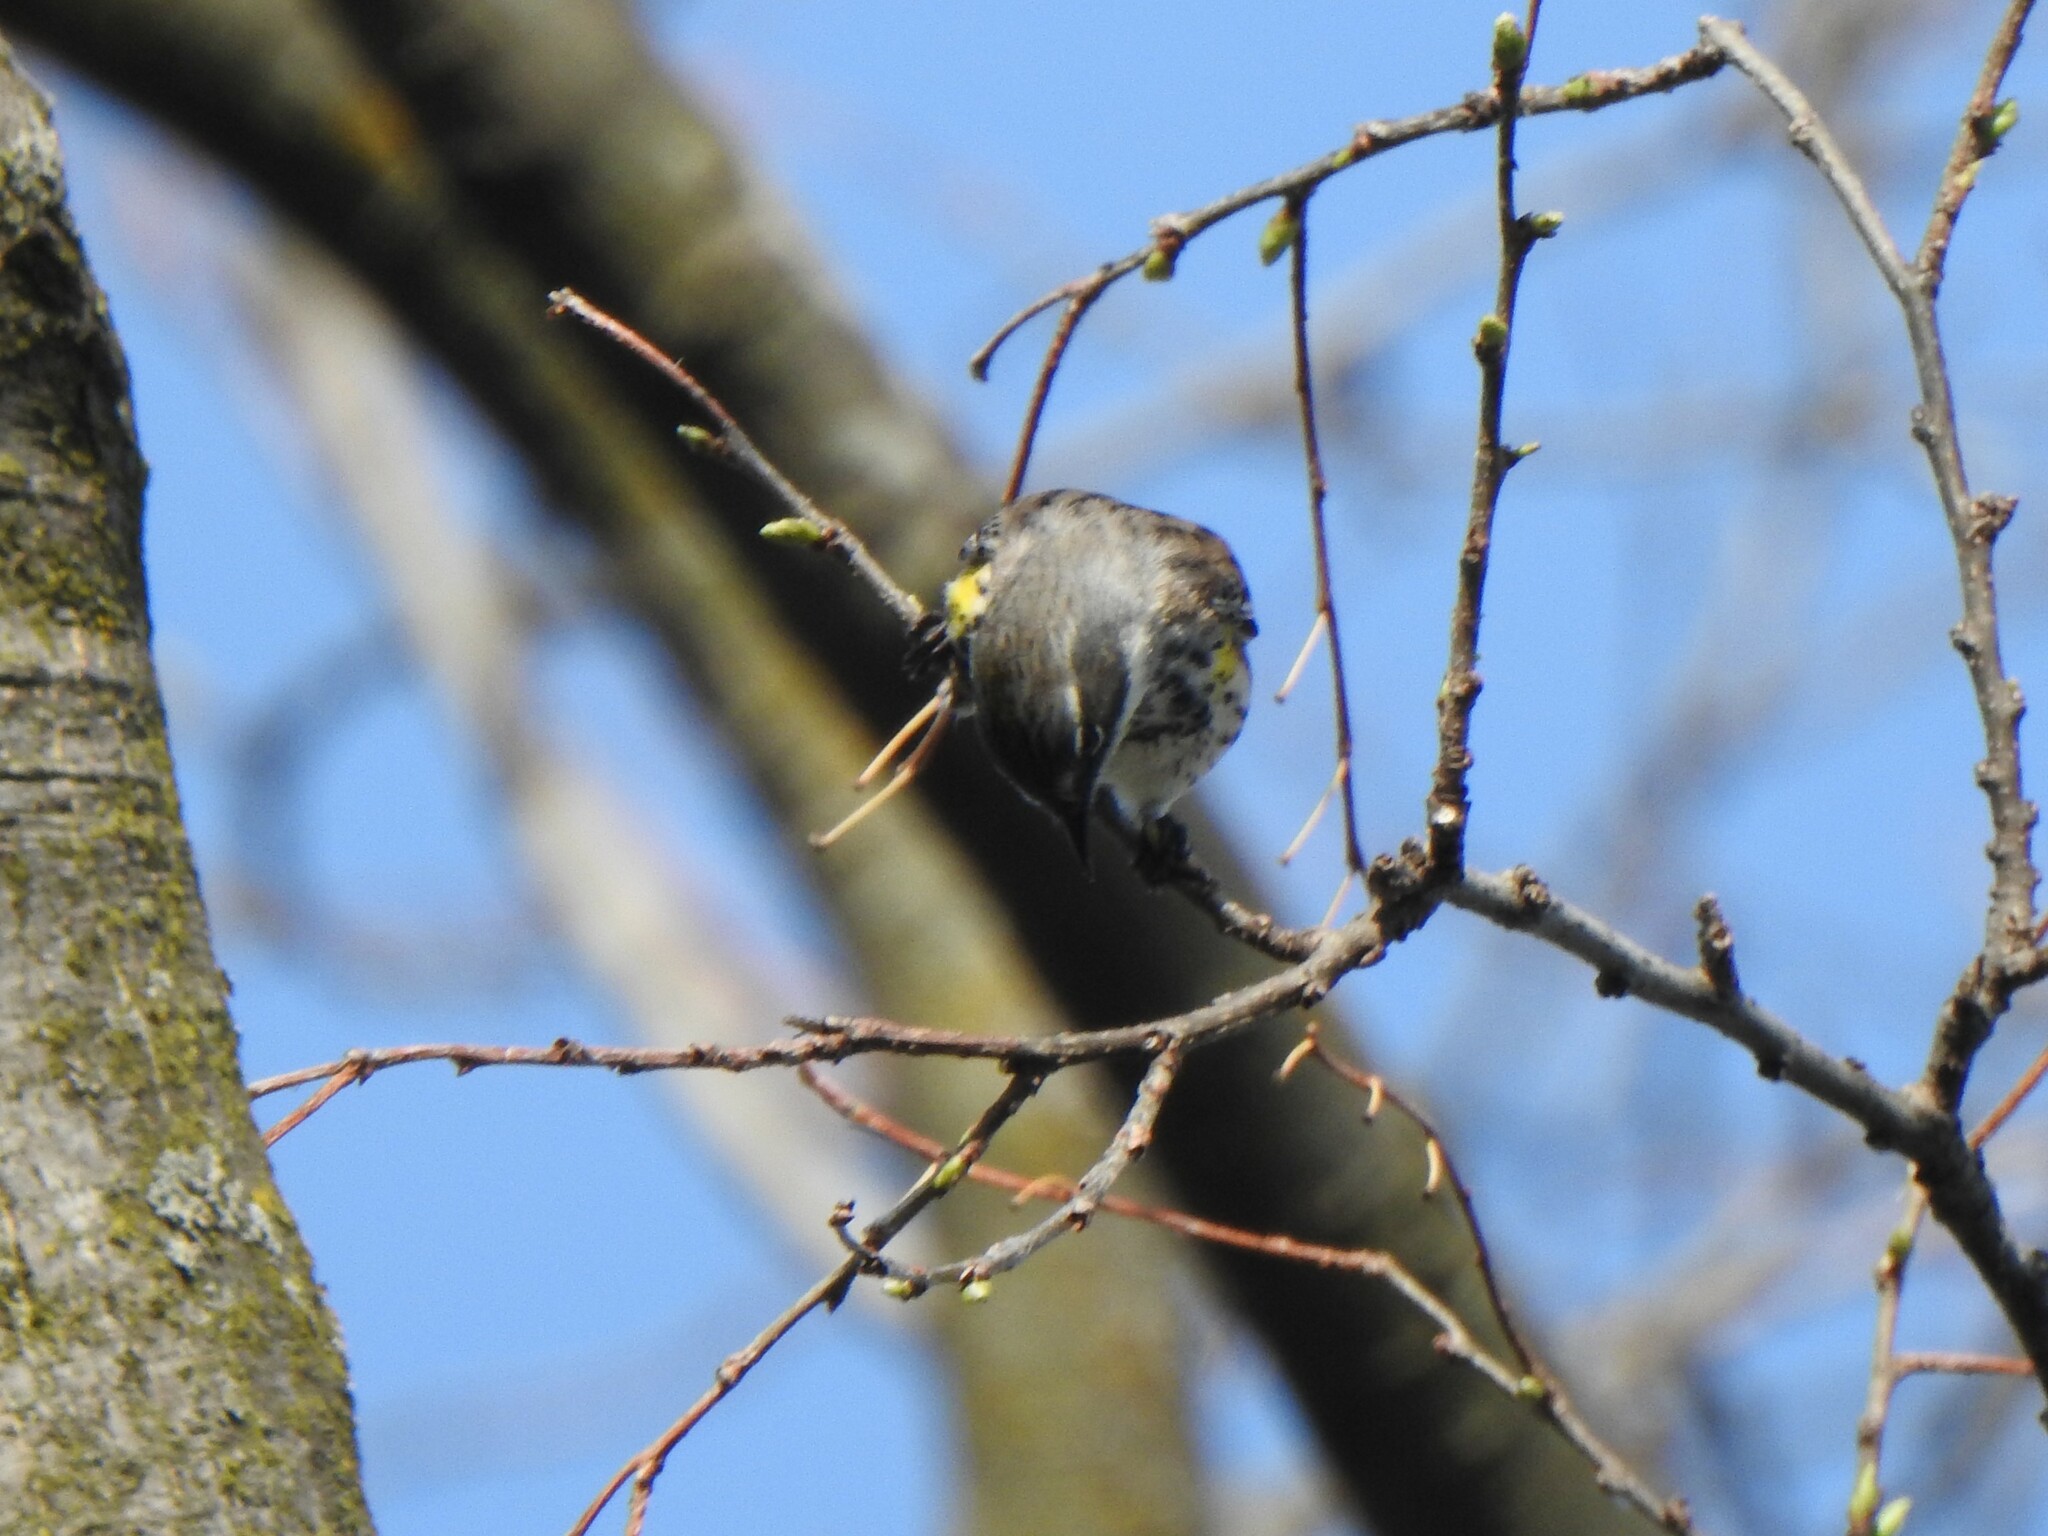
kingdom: Animalia
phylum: Chordata
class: Aves
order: Passeriformes
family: Parulidae
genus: Setophaga
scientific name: Setophaga coronata
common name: Myrtle warbler
